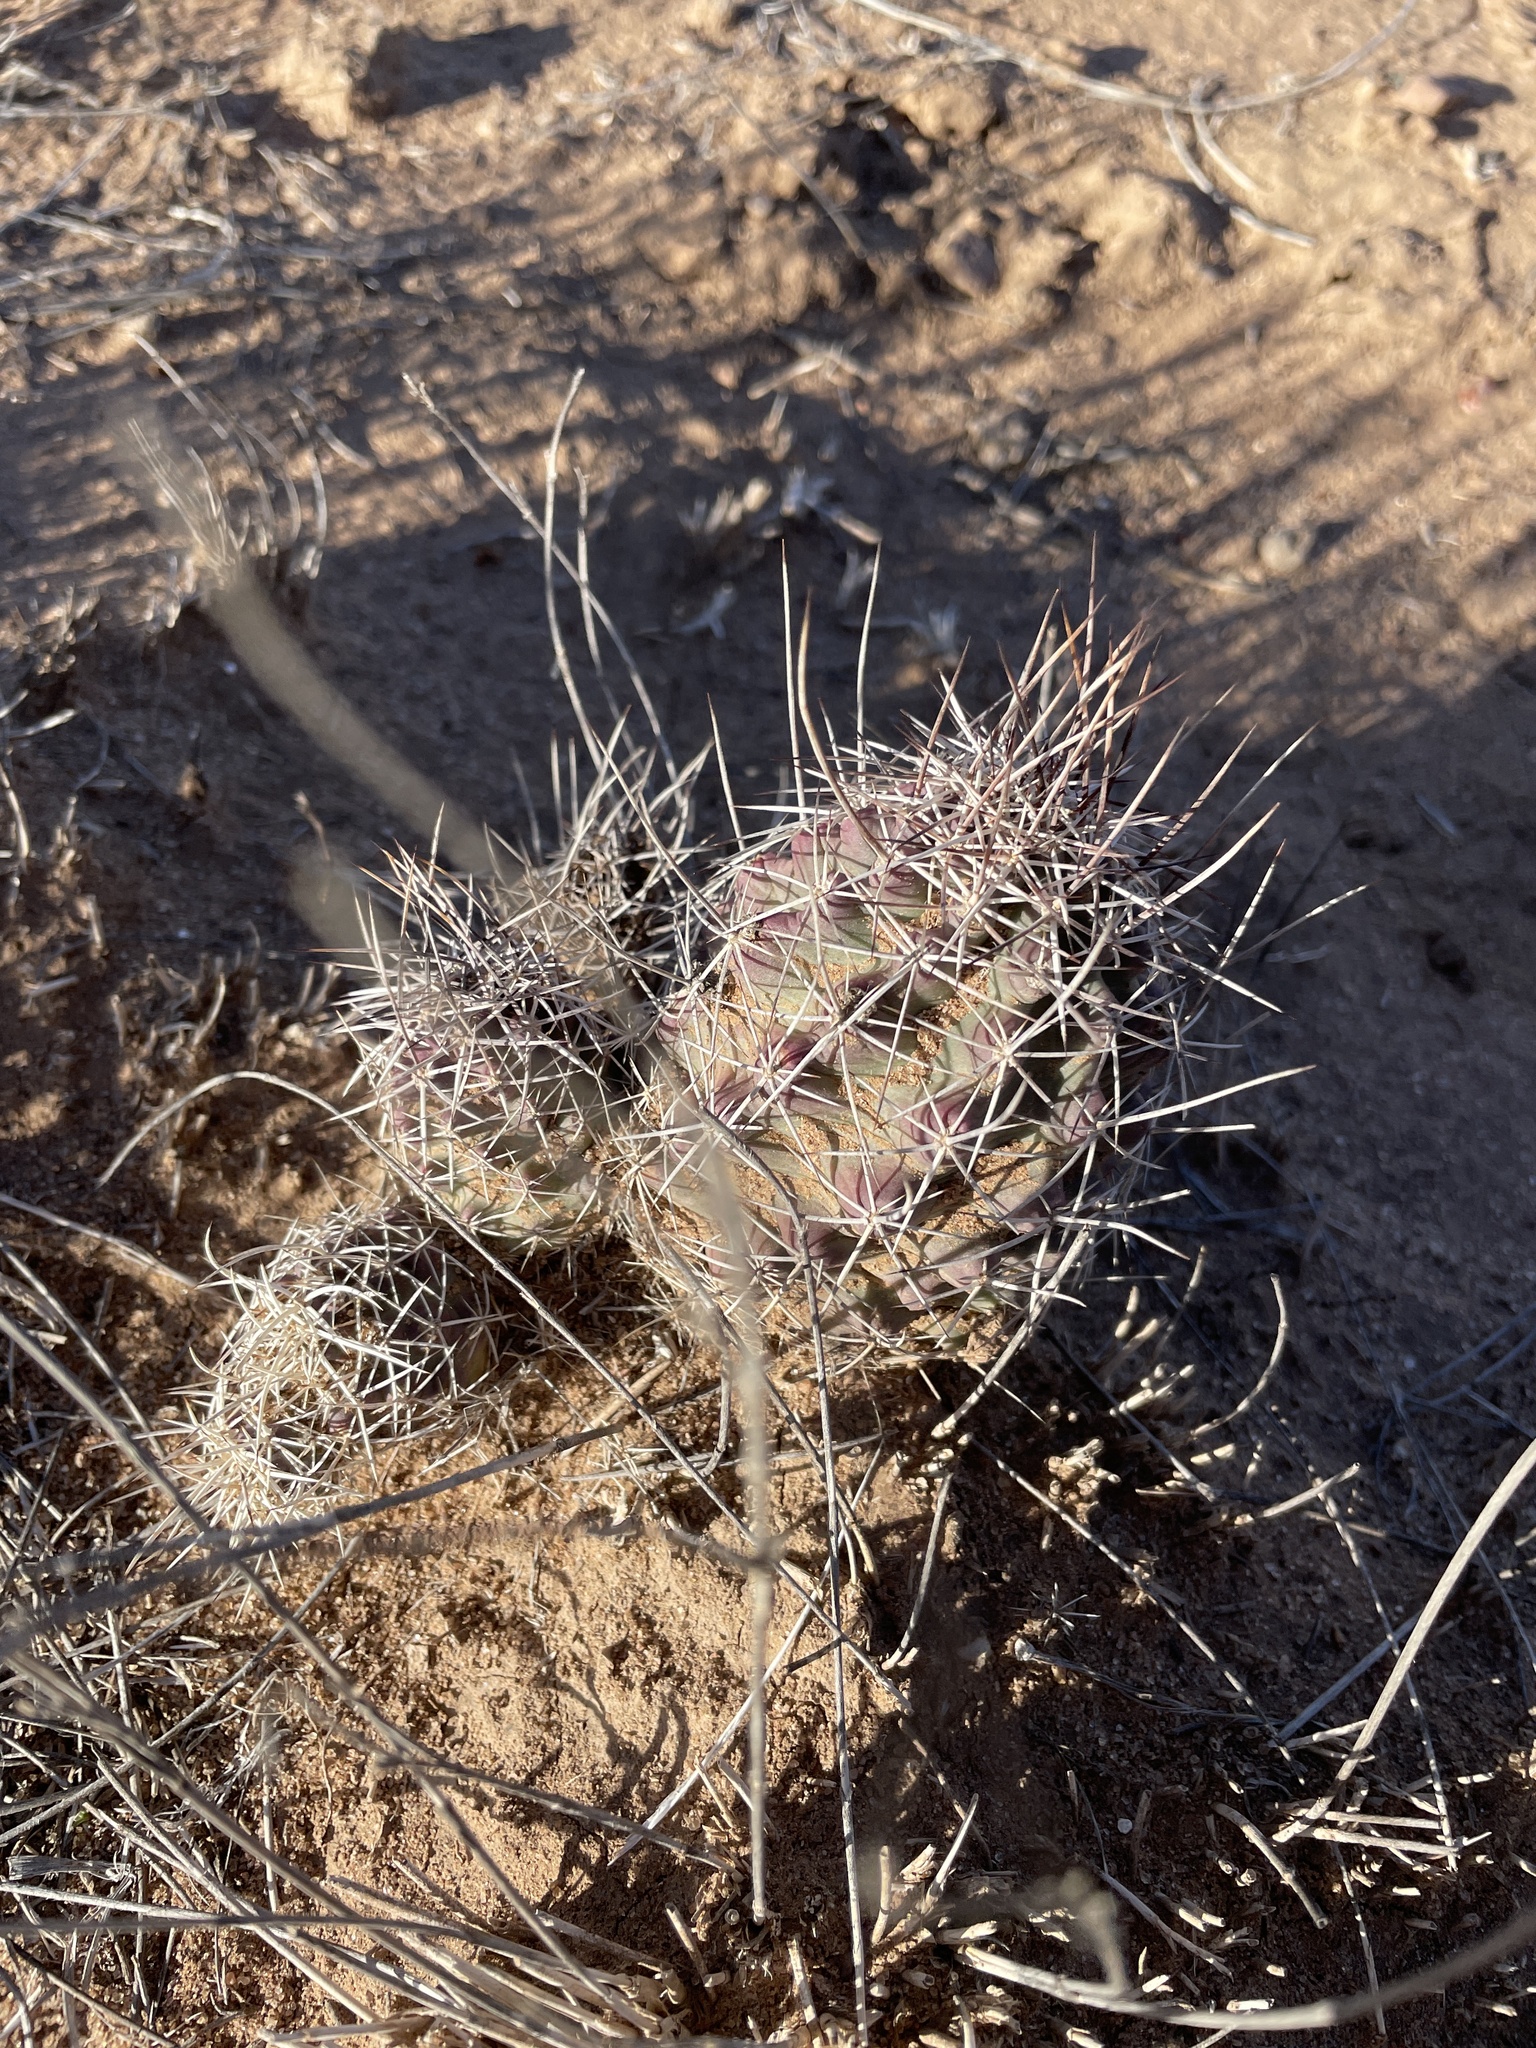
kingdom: Plantae
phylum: Tracheophyta
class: Magnoliopsida
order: Caryophyllales
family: Cactaceae
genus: Echinocereus
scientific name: Echinocereus fendleri
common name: Fendler's hedgehog cactus
